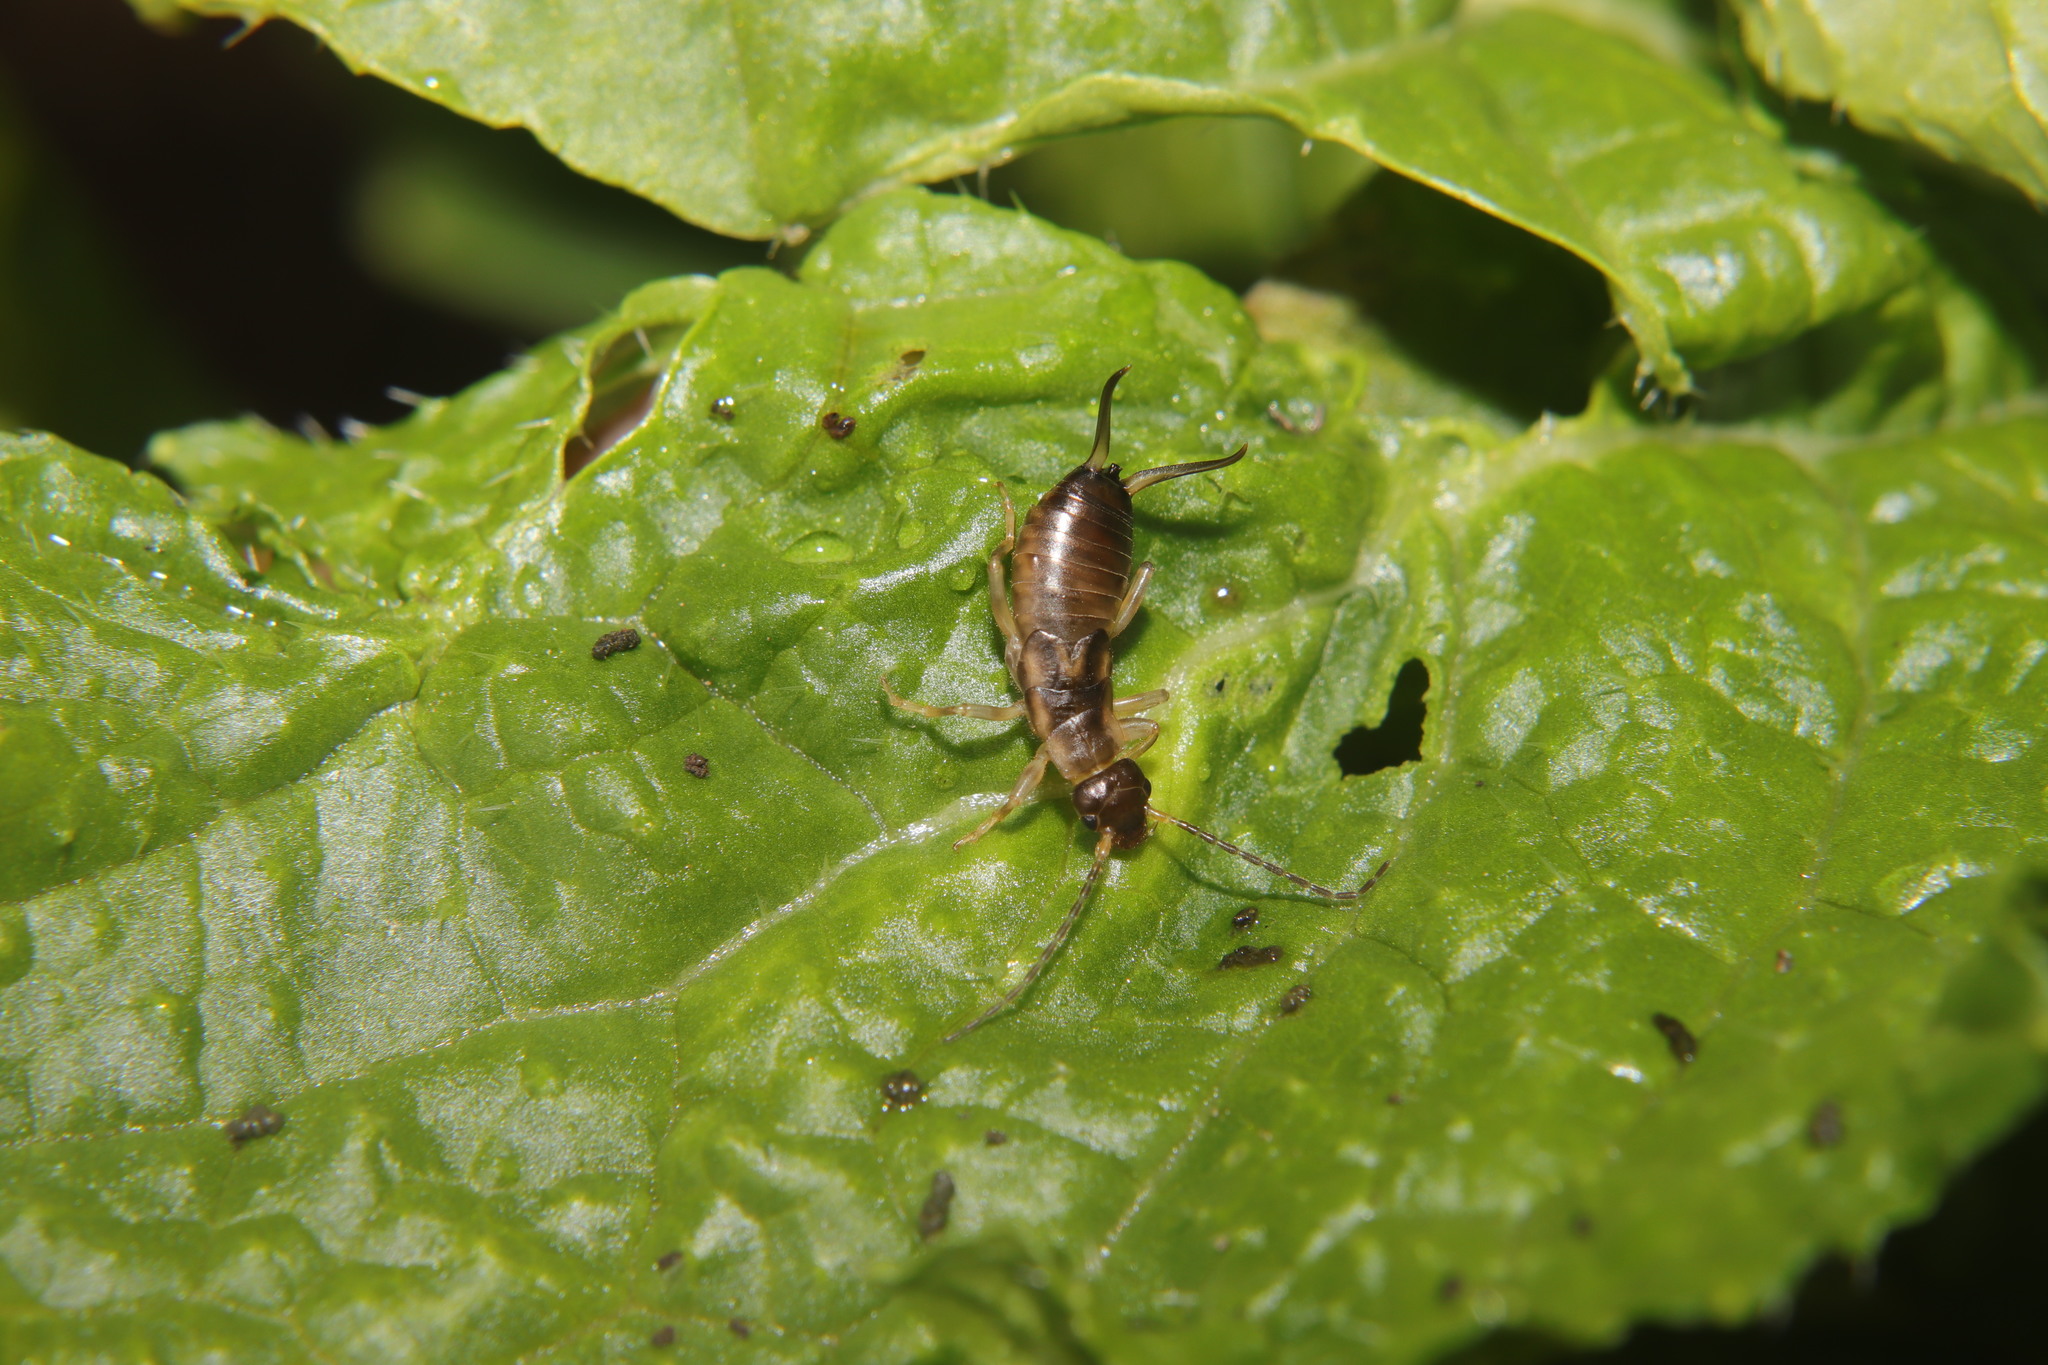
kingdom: Animalia
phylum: Arthropoda
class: Insecta
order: Dermaptera
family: Forficulidae
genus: Forficula
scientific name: Forficula
